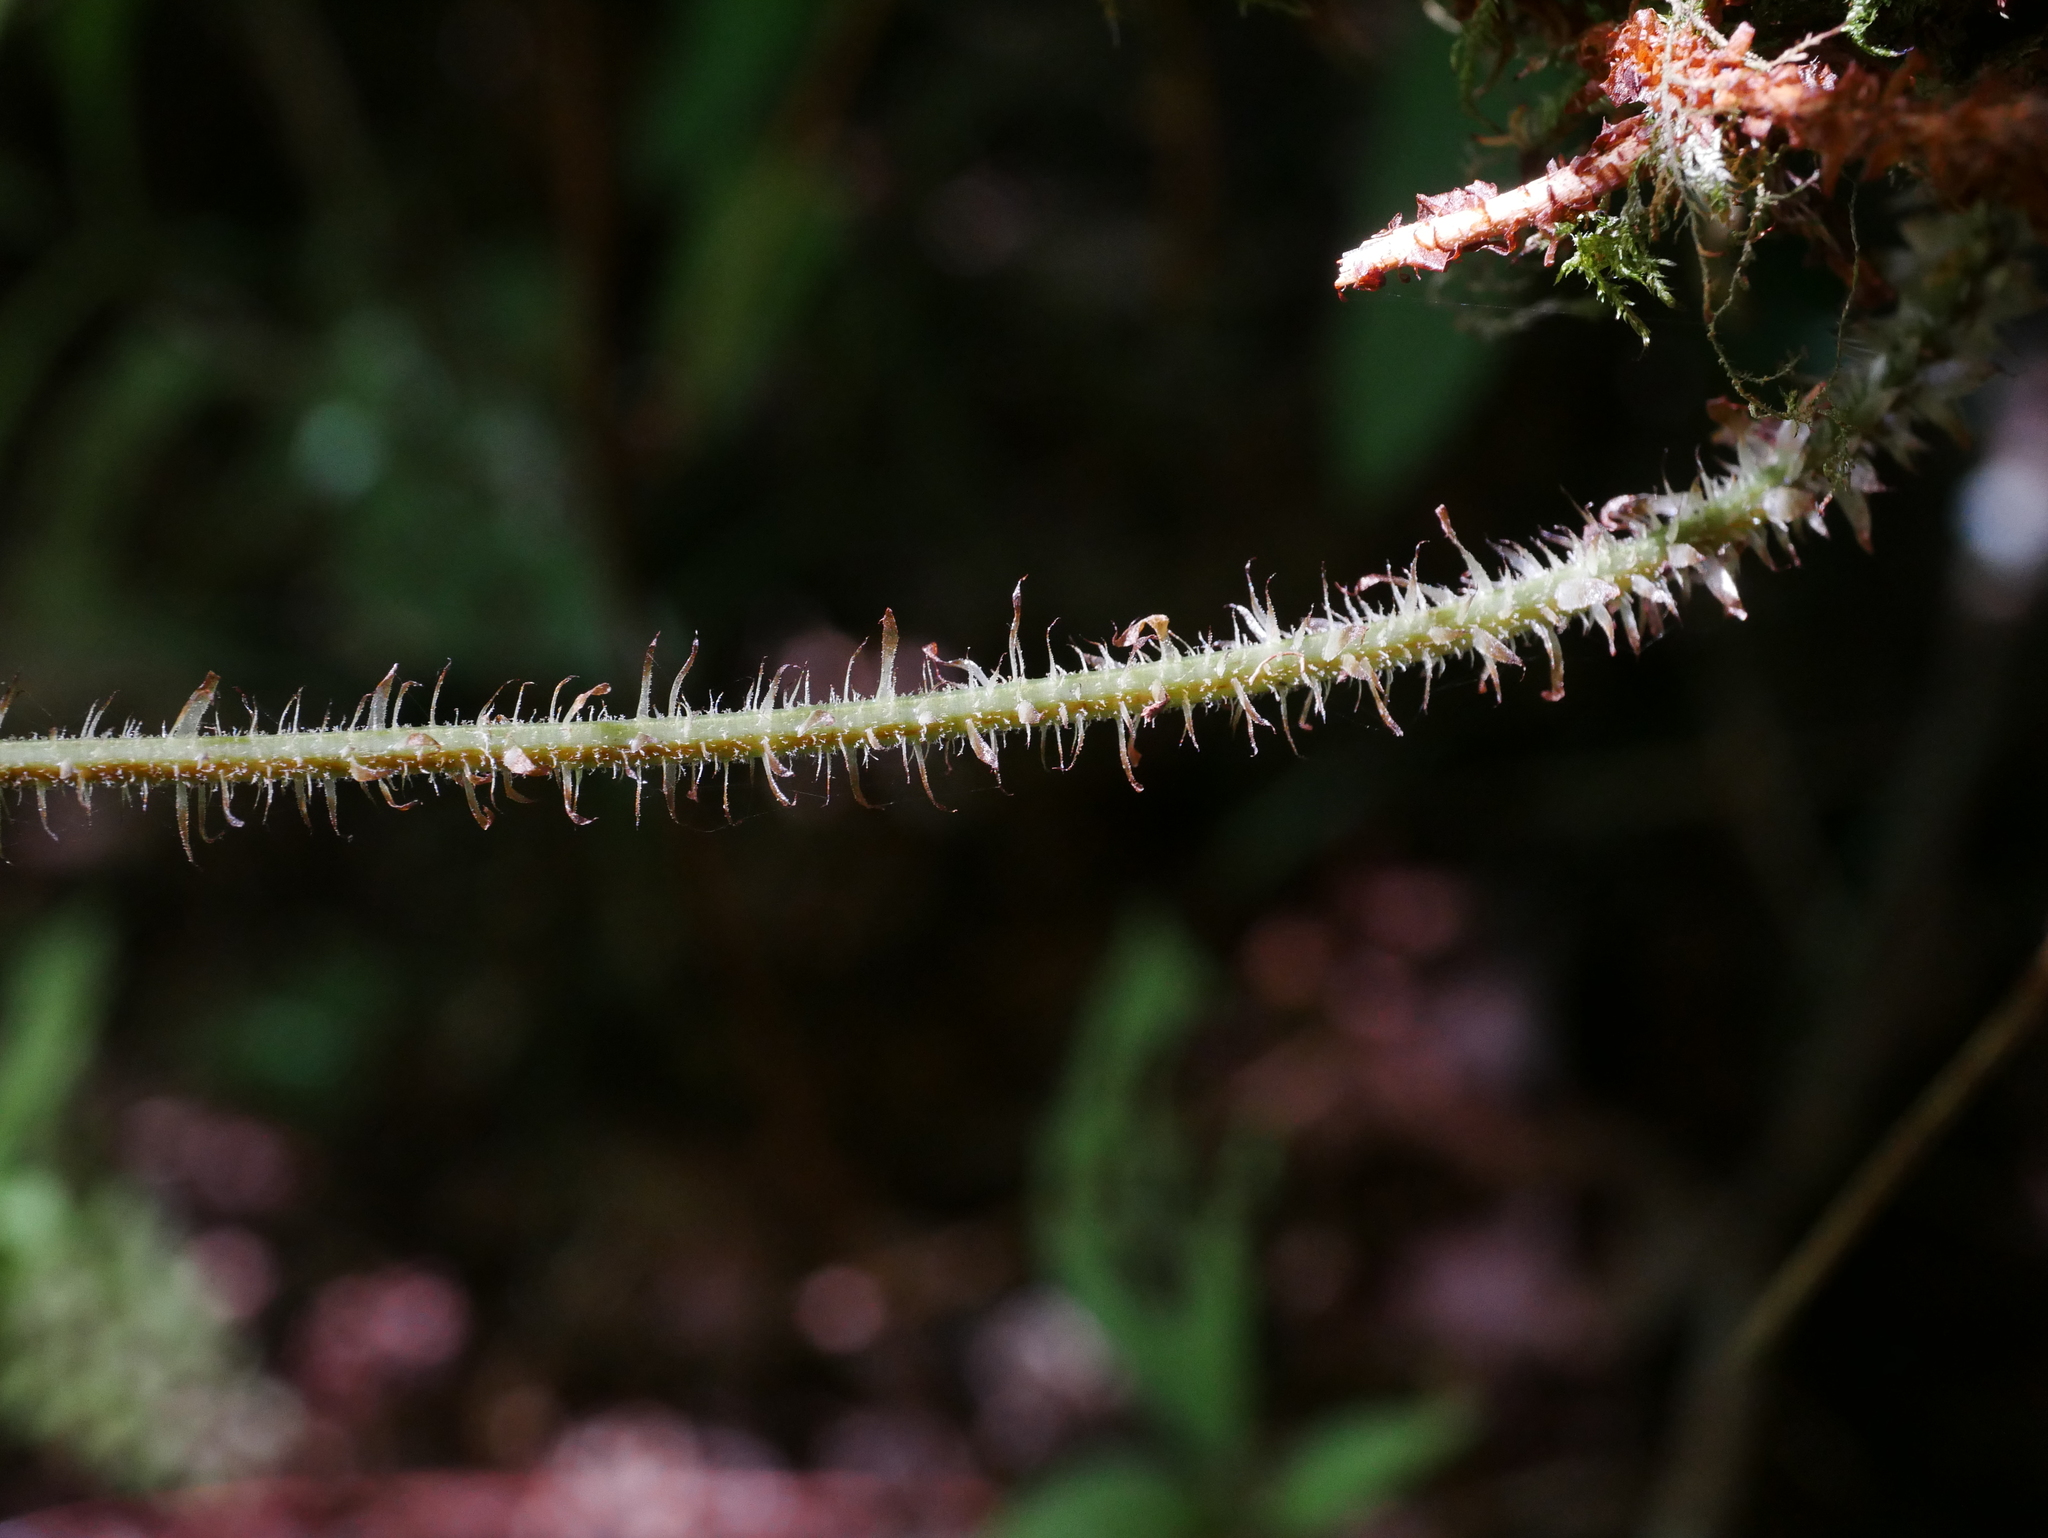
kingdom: Plantae
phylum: Tracheophyta
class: Polypodiopsida
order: Polypodiales
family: Dryopteridaceae
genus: Dryopteris
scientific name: Dryopteris peranema
